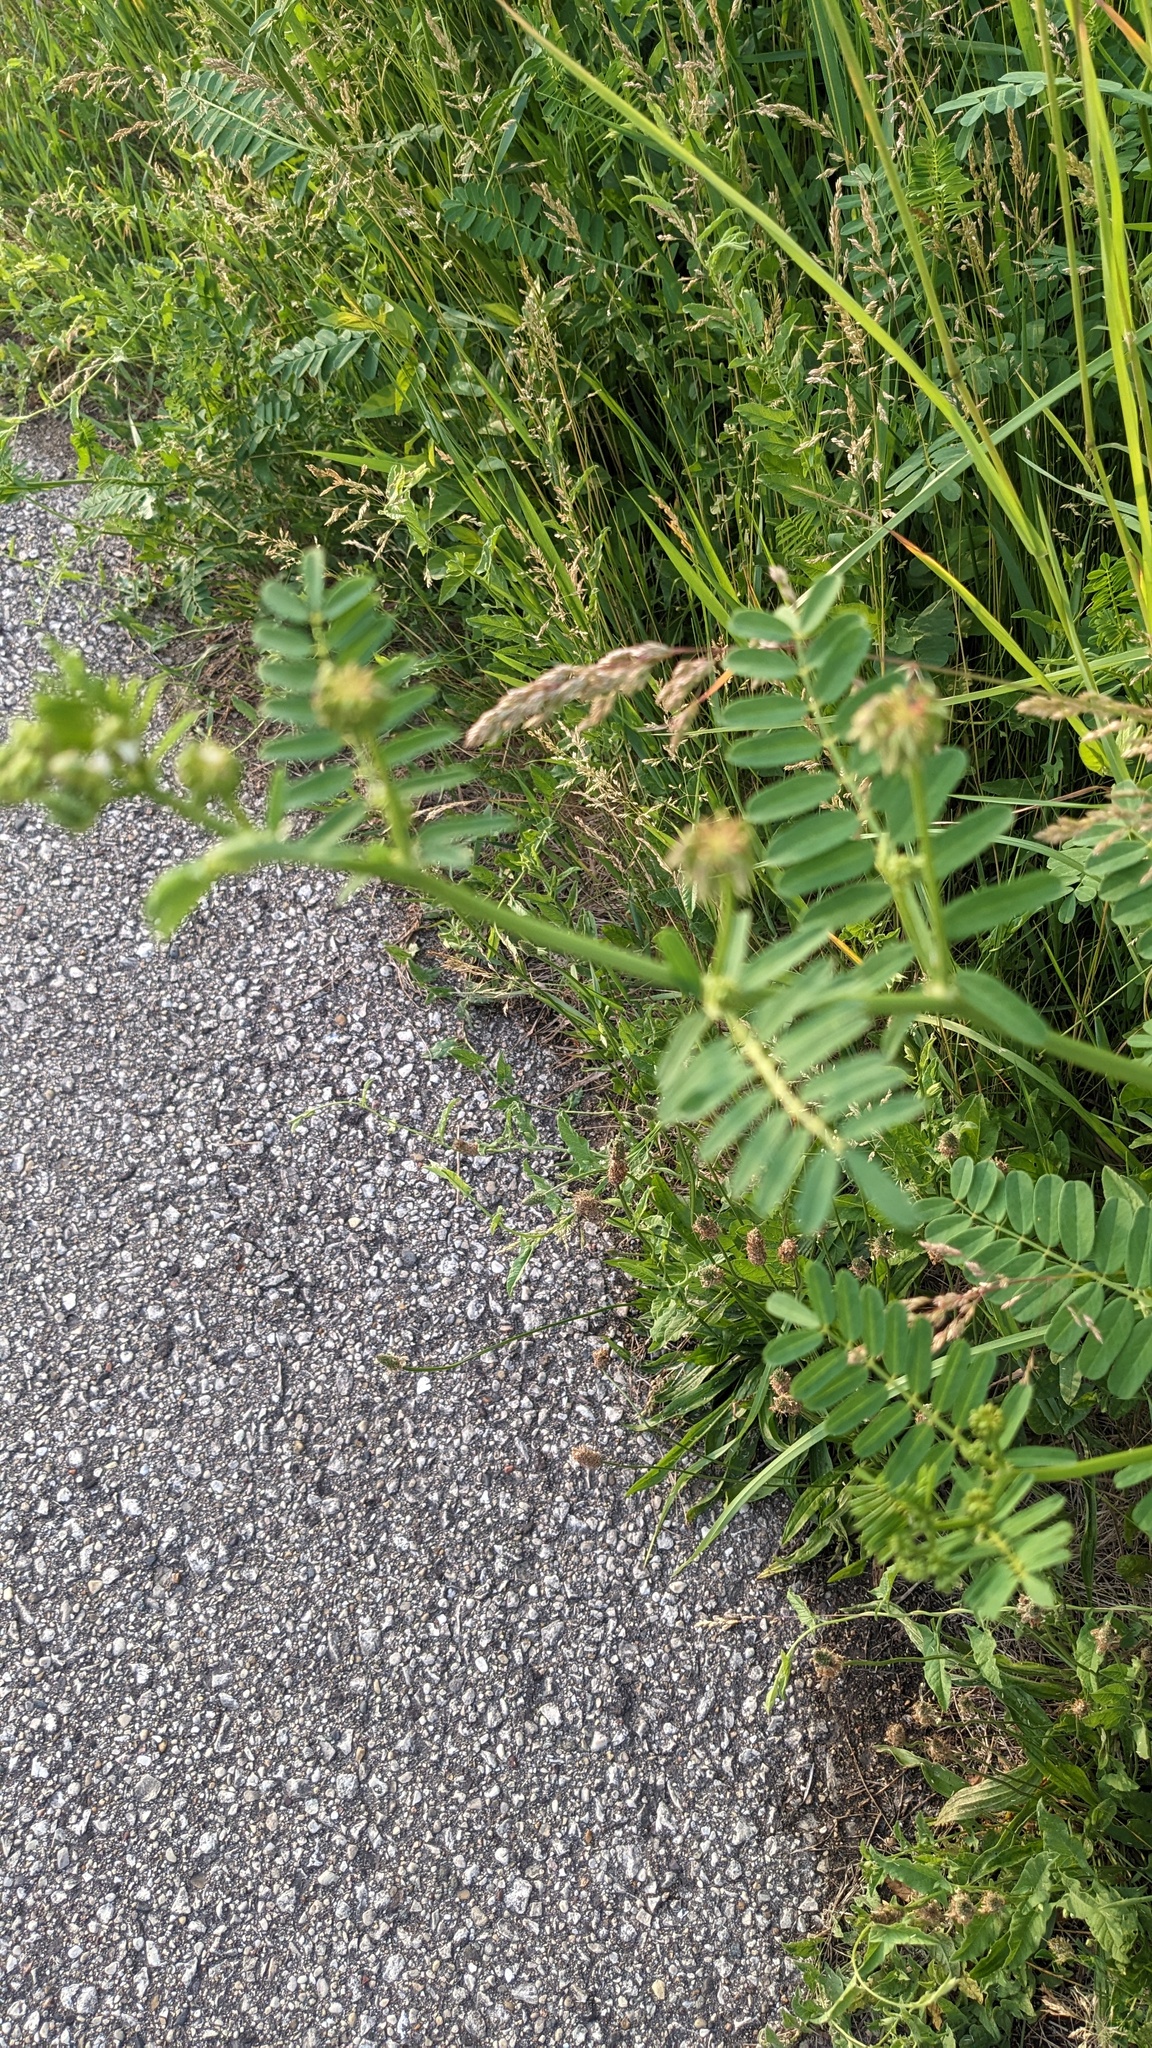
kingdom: Plantae
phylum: Tracheophyta
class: Magnoliopsida
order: Fabales
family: Fabaceae
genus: Coronilla
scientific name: Coronilla varia
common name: Crownvetch
